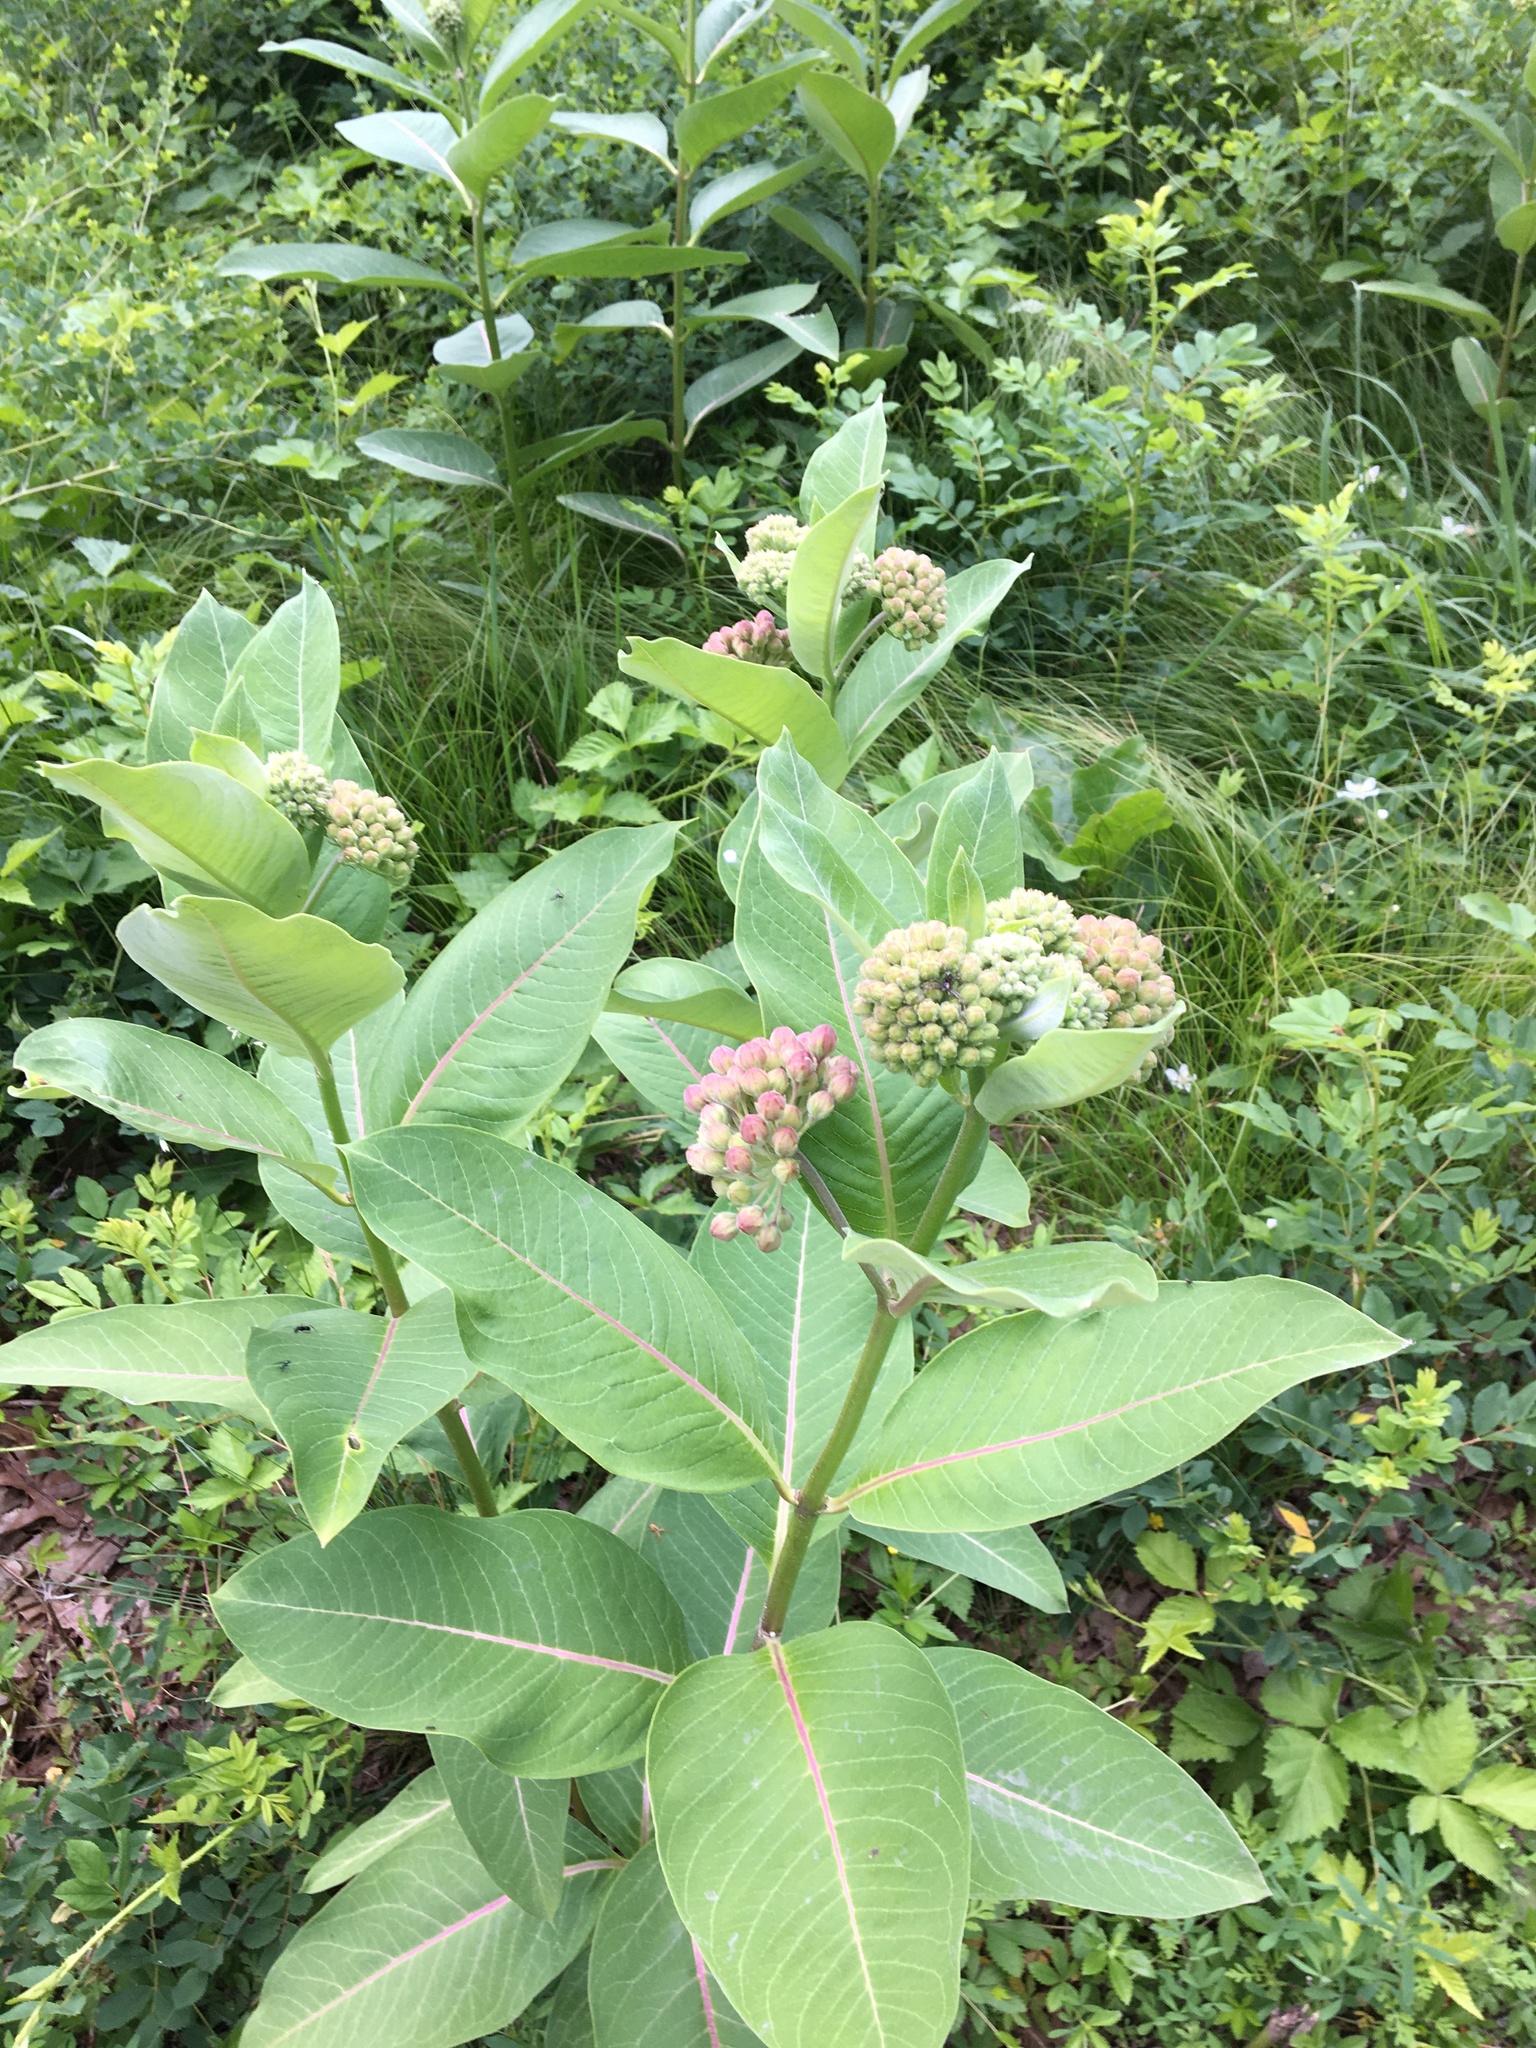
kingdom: Plantae
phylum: Tracheophyta
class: Magnoliopsida
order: Gentianales
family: Apocynaceae
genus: Asclepias
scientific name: Asclepias syriaca
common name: Common milkweed
